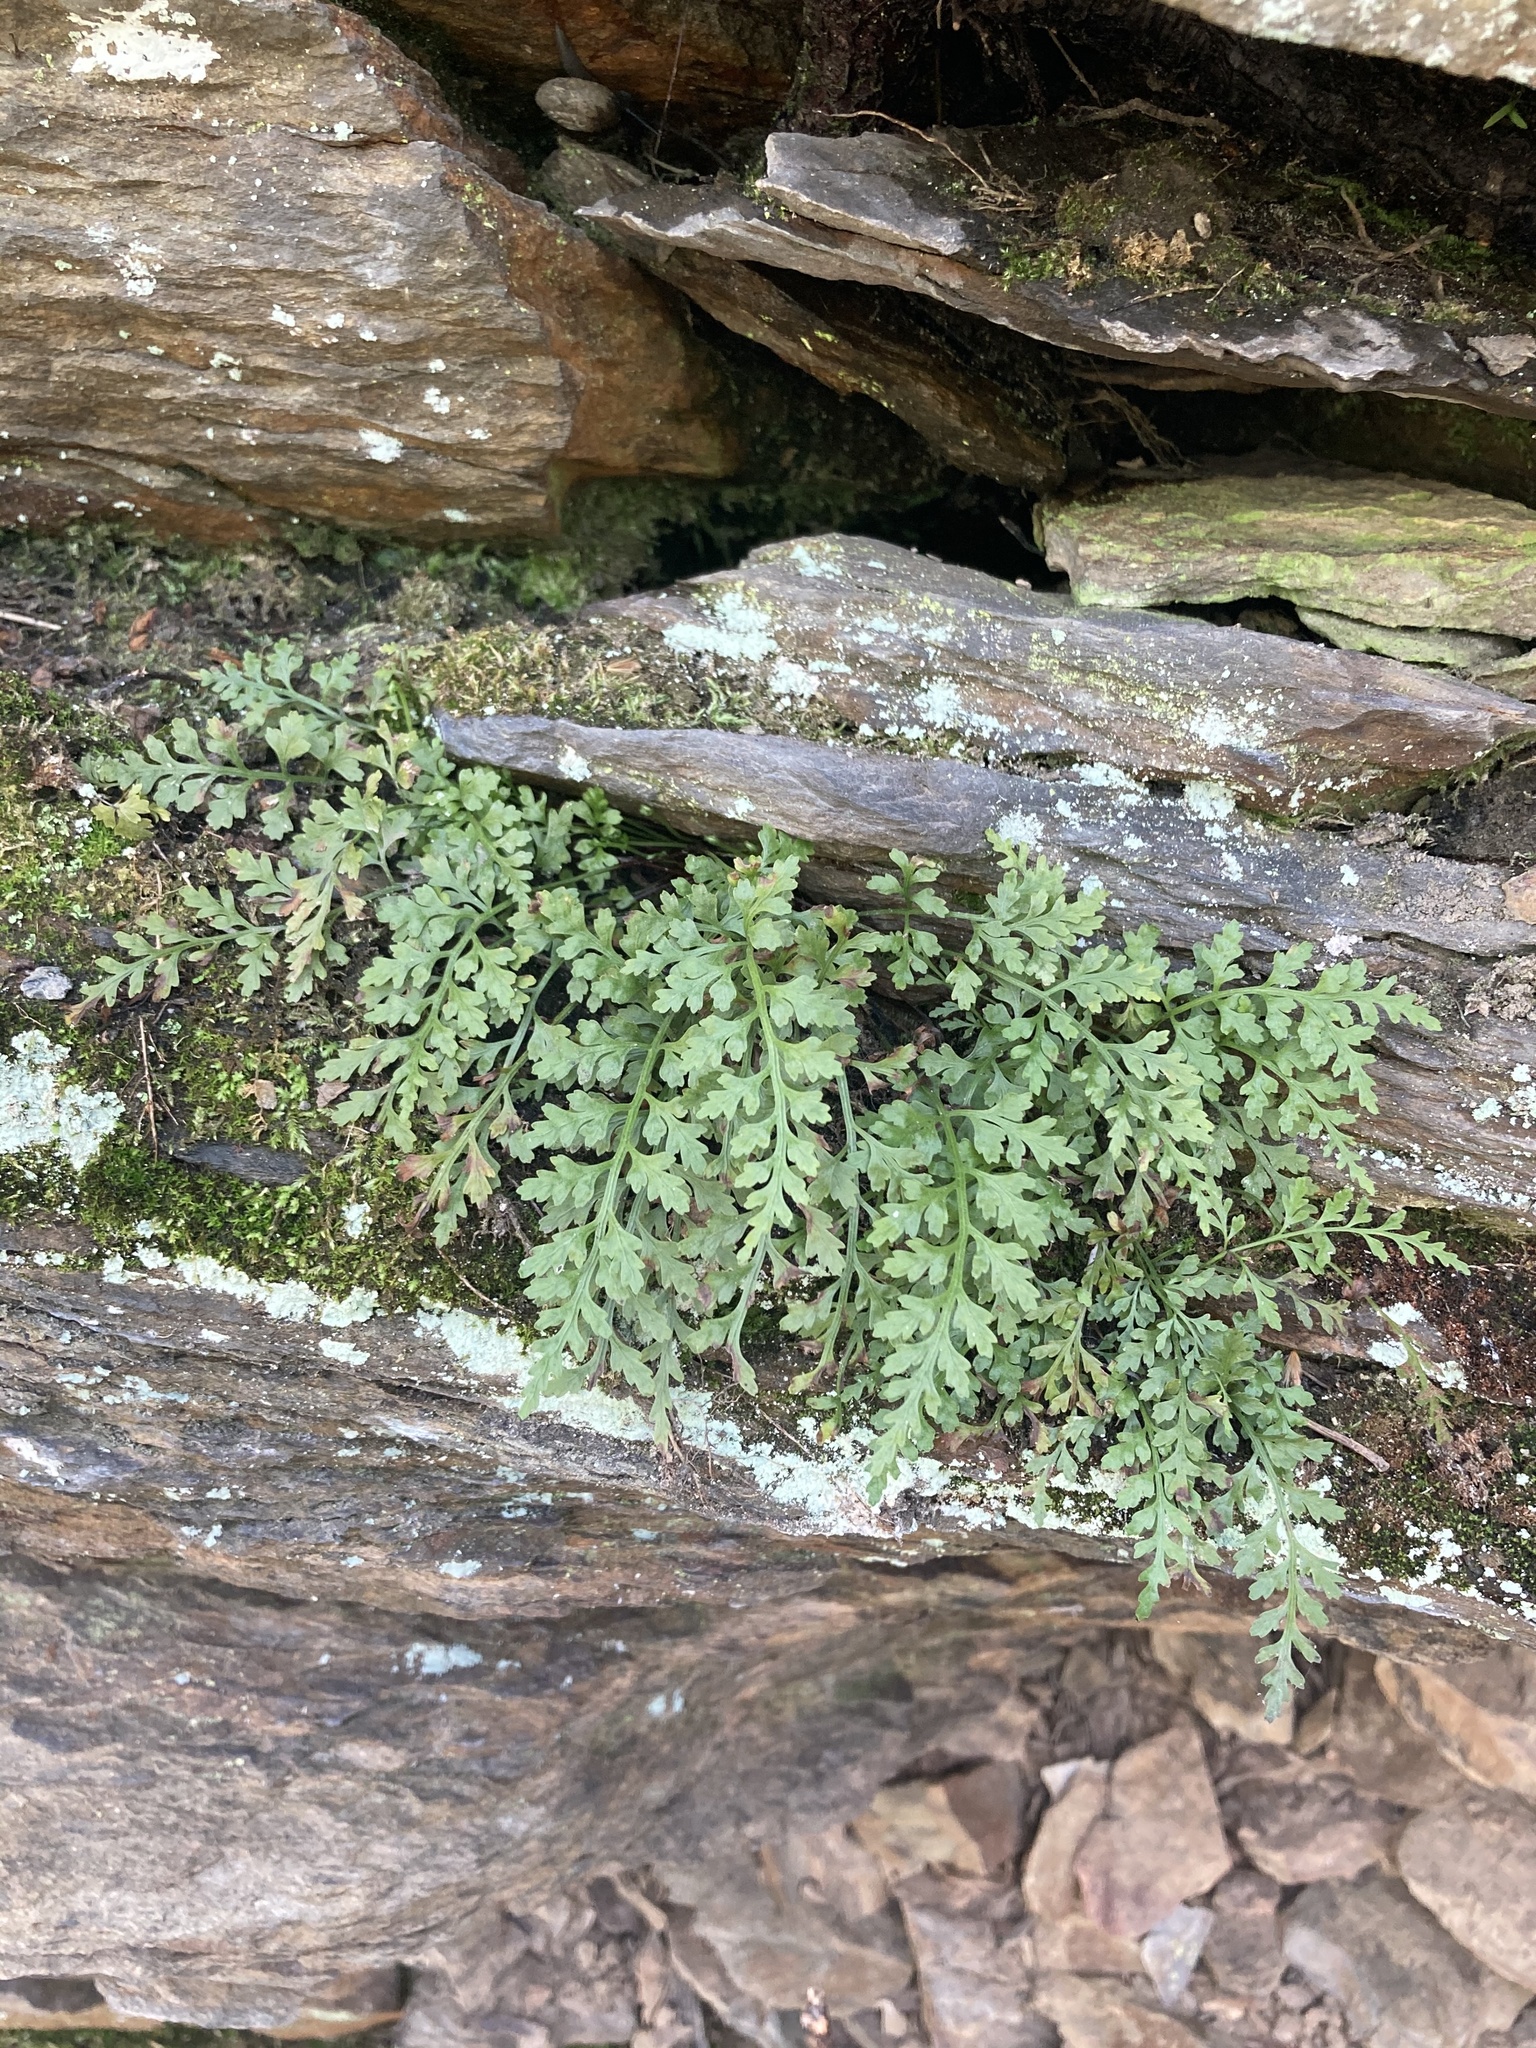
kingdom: Plantae
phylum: Tracheophyta
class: Polypodiopsida
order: Polypodiales
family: Aspleniaceae
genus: Asplenium
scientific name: Asplenium montanum
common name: Mountain spleenwort
